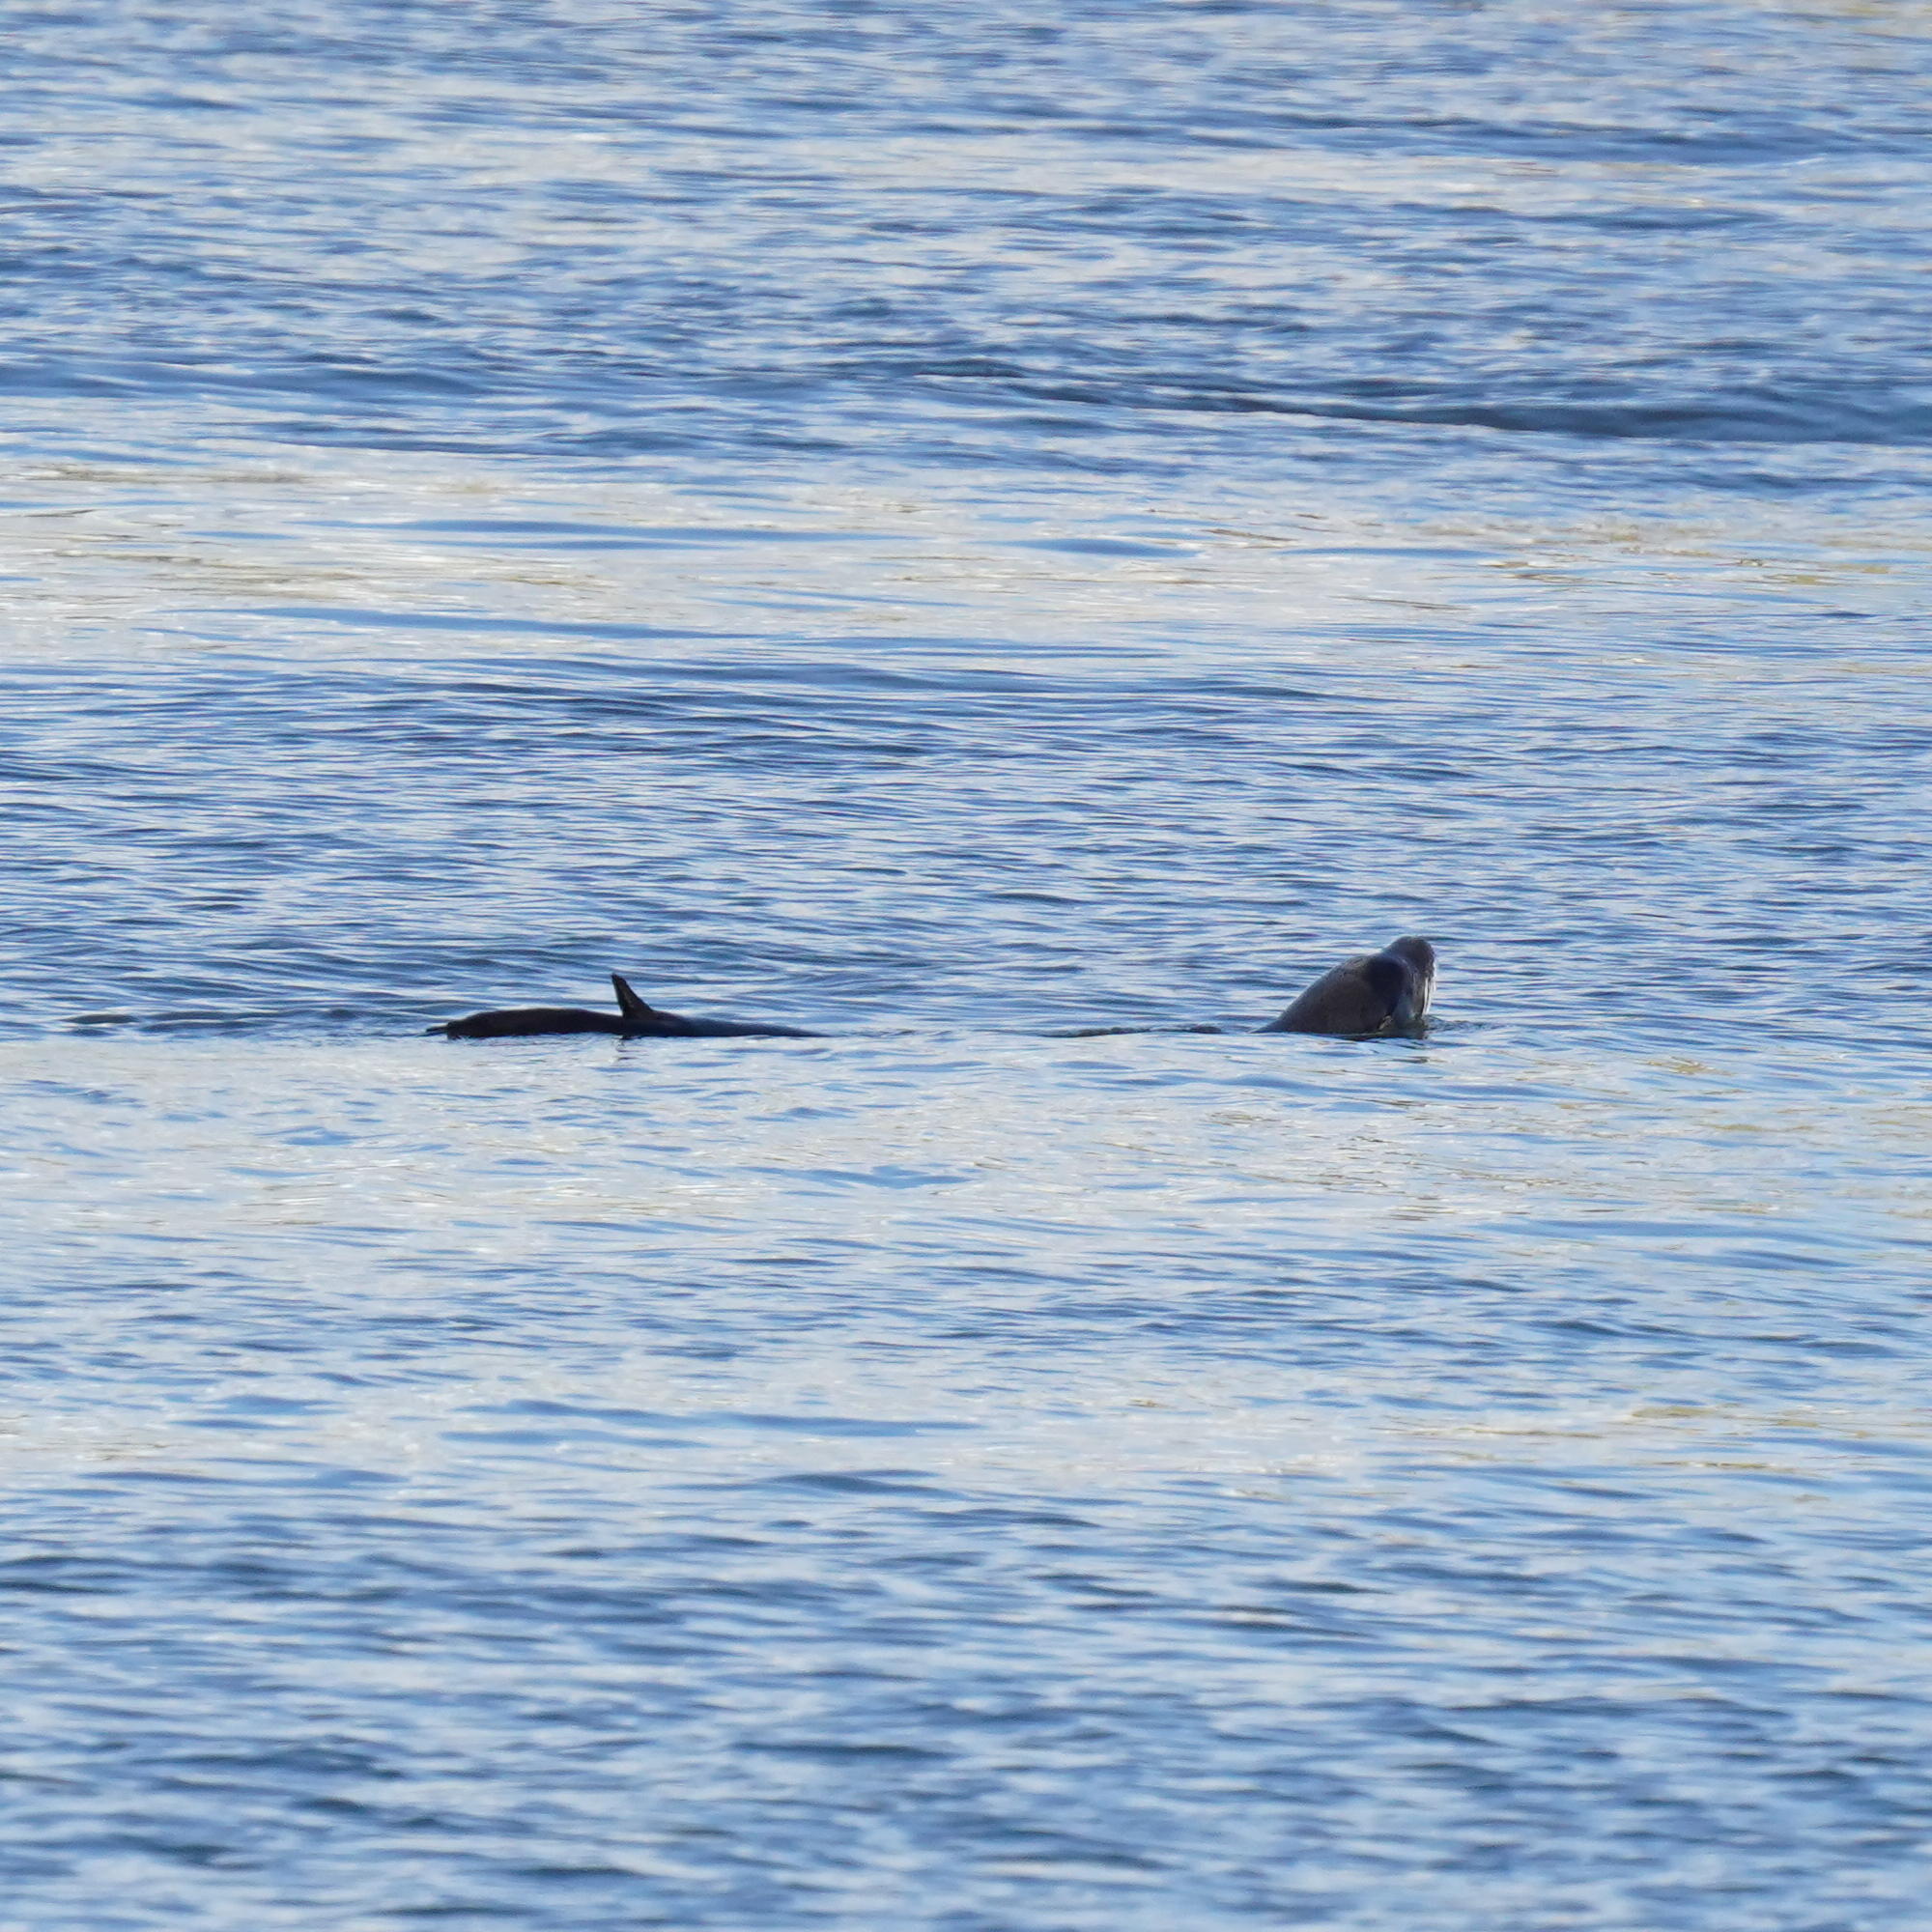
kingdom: Animalia
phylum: Chordata
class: Mammalia
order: Carnivora
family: Otariidae
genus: Zalophus
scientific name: Zalophus californianus
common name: California sea lion
